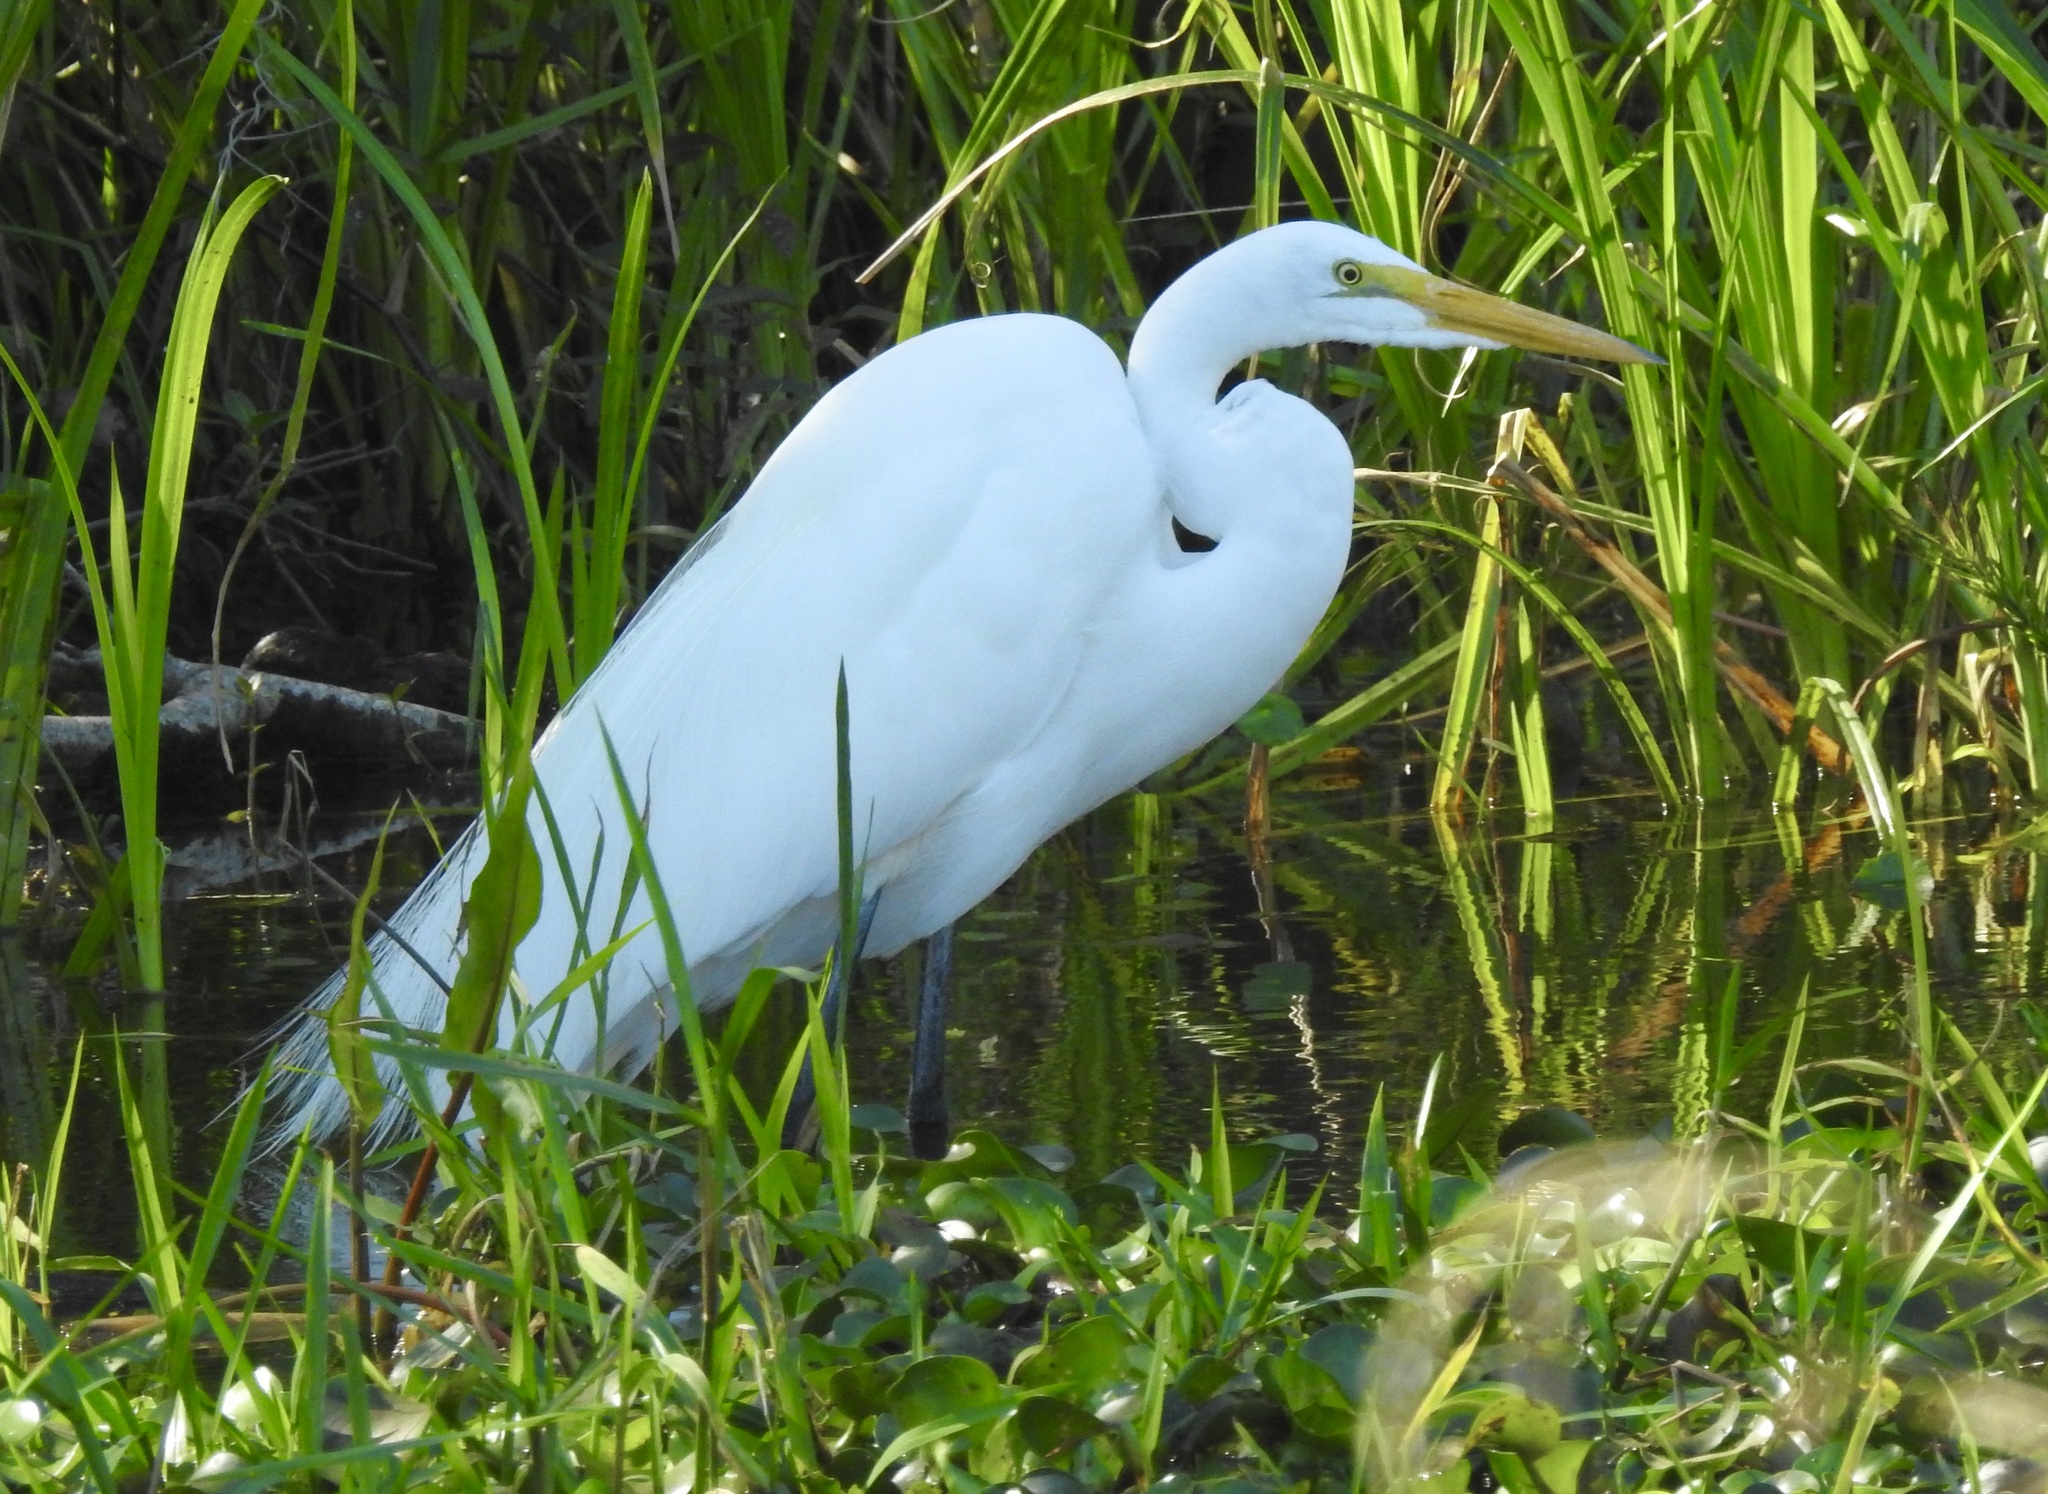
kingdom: Animalia
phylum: Chordata
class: Aves
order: Pelecaniformes
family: Ardeidae
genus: Ardea
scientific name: Ardea alba
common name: Great egret
